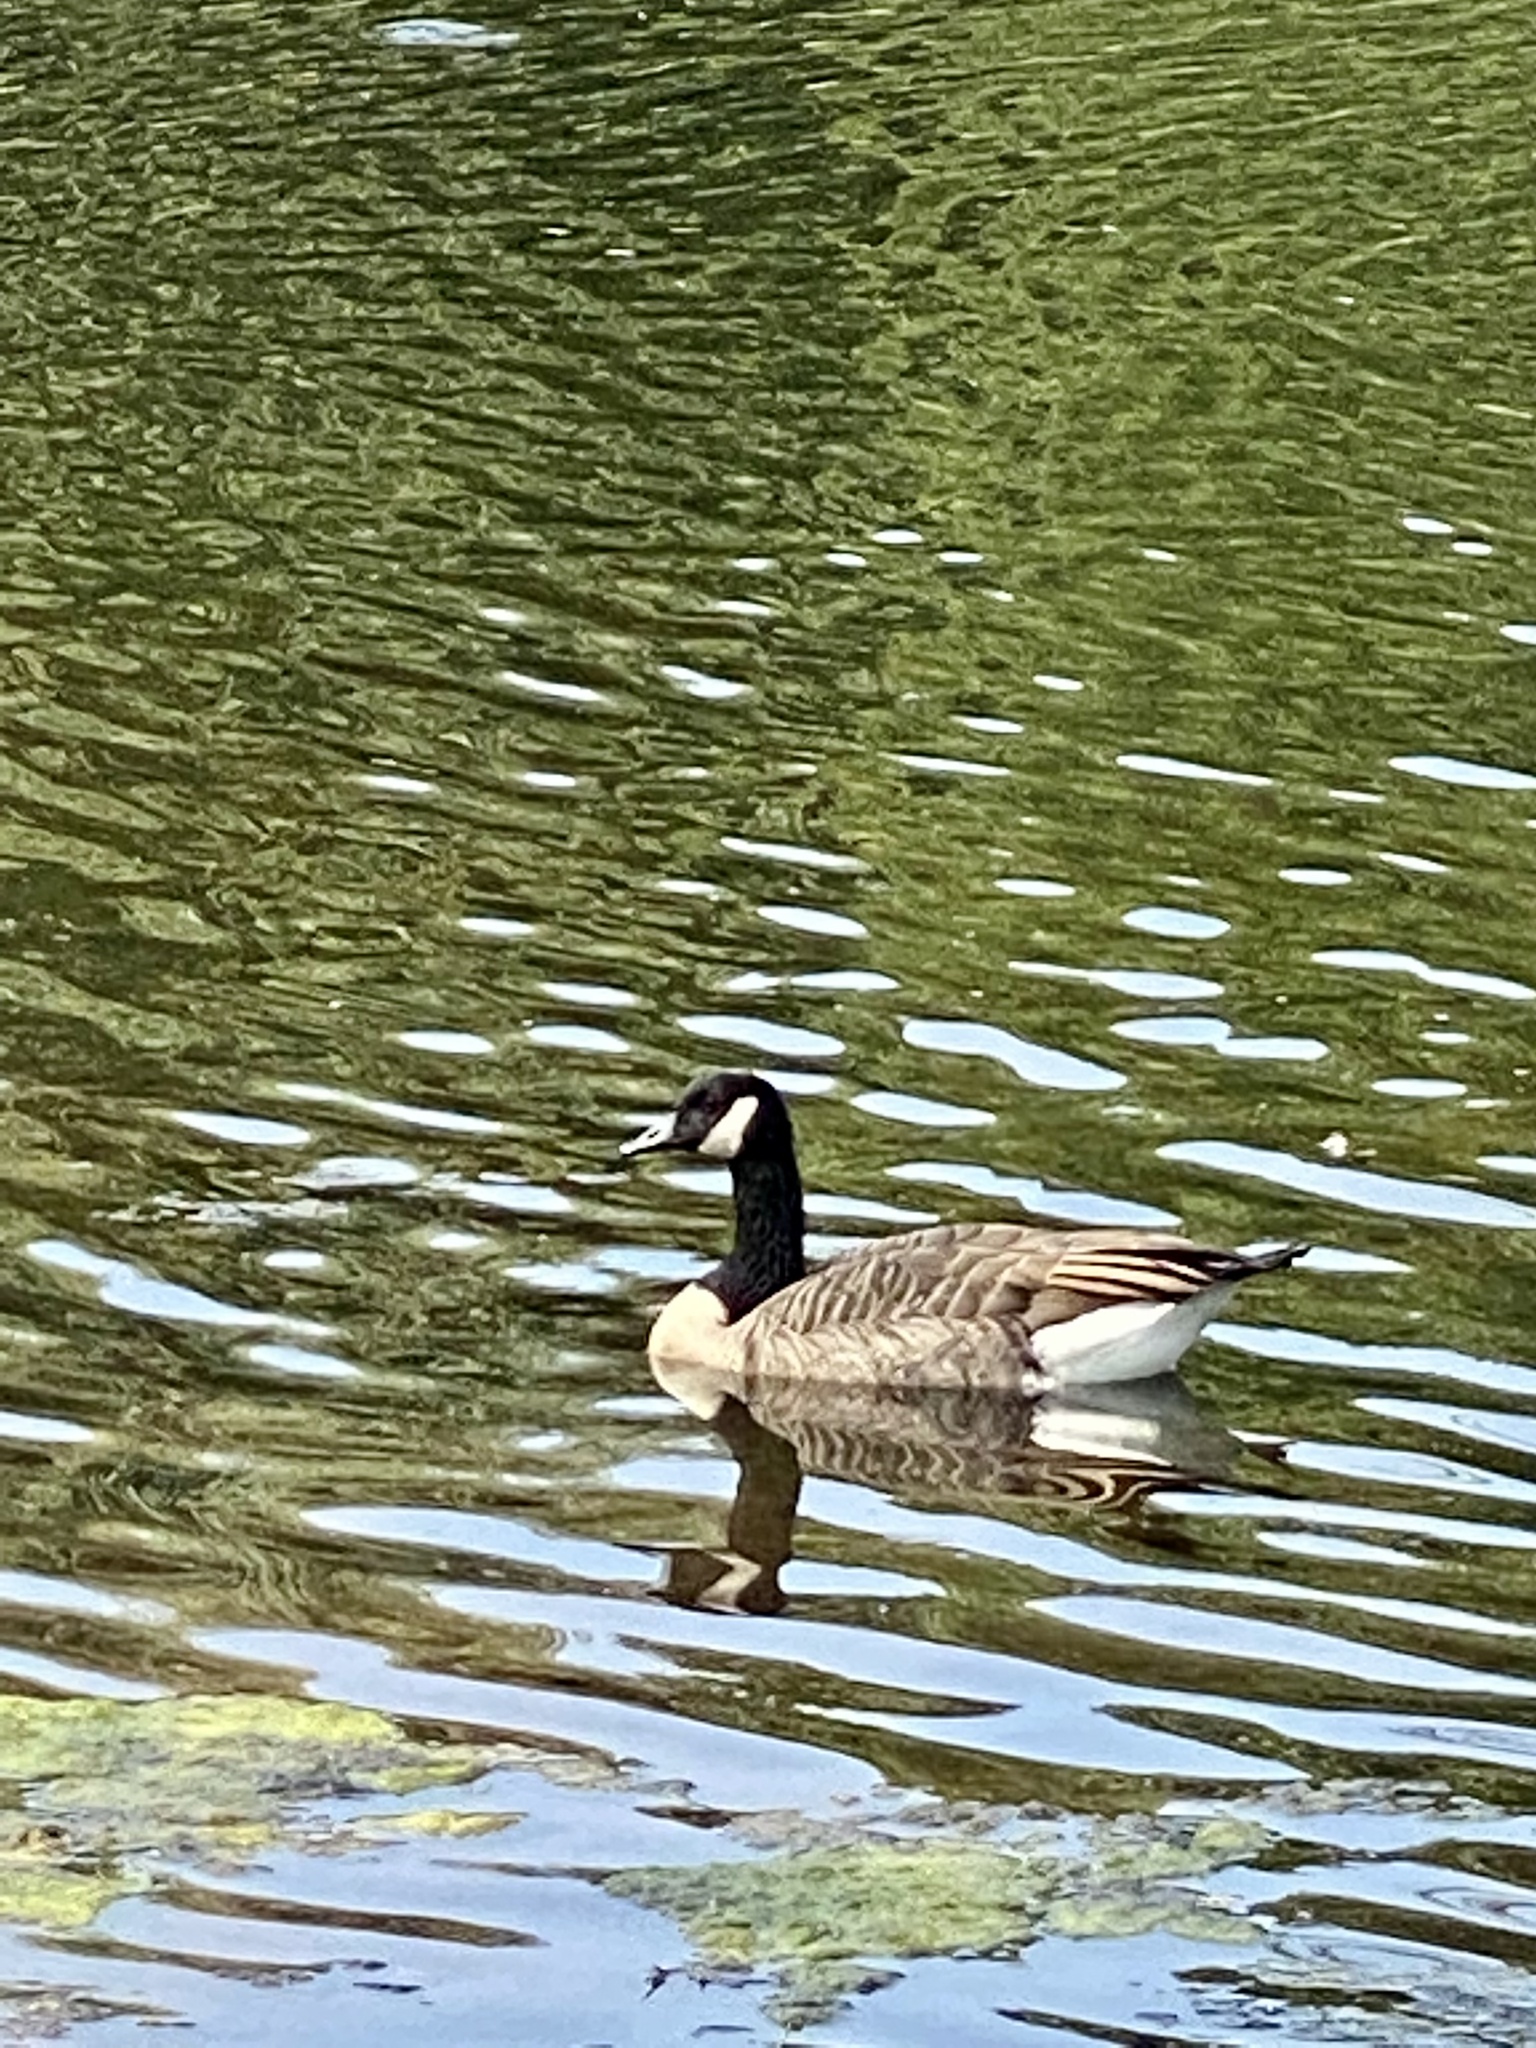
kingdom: Animalia
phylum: Chordata
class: Aves
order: Anseriformes
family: Anatidae
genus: Branta
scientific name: Branta canadensis
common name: Canada goose
